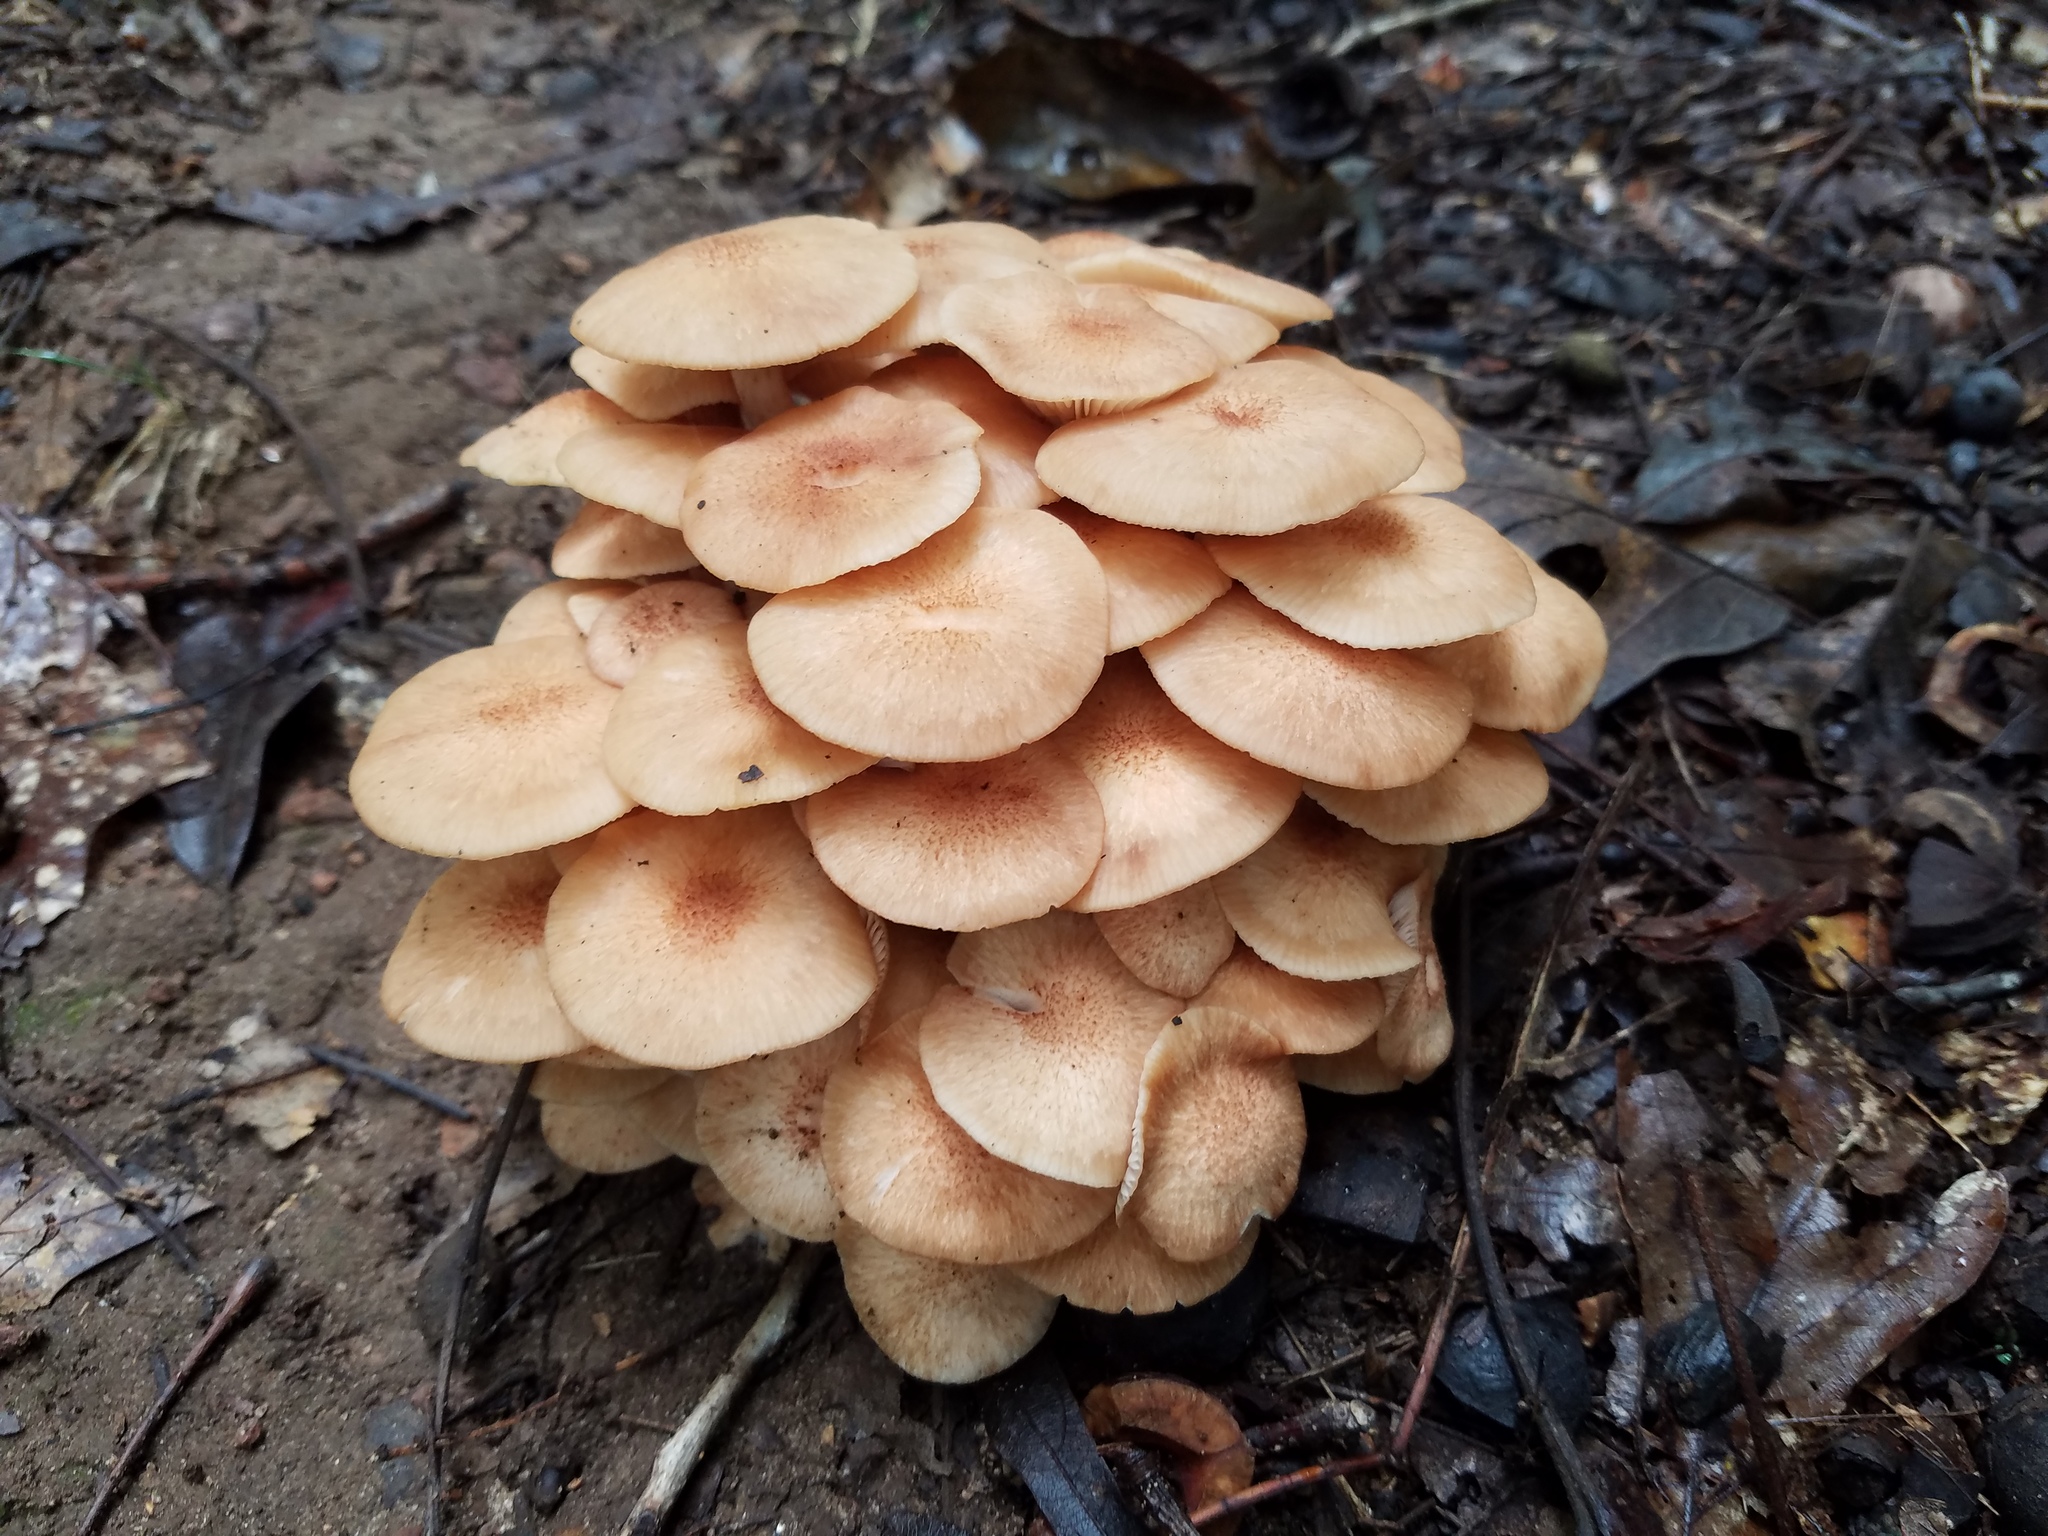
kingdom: Fungi
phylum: Basidiomycota
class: Agaricomycetes
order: Agaricales
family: Physalacriaceae
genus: Desarmillaria
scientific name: Desarmillaria caespitosa
